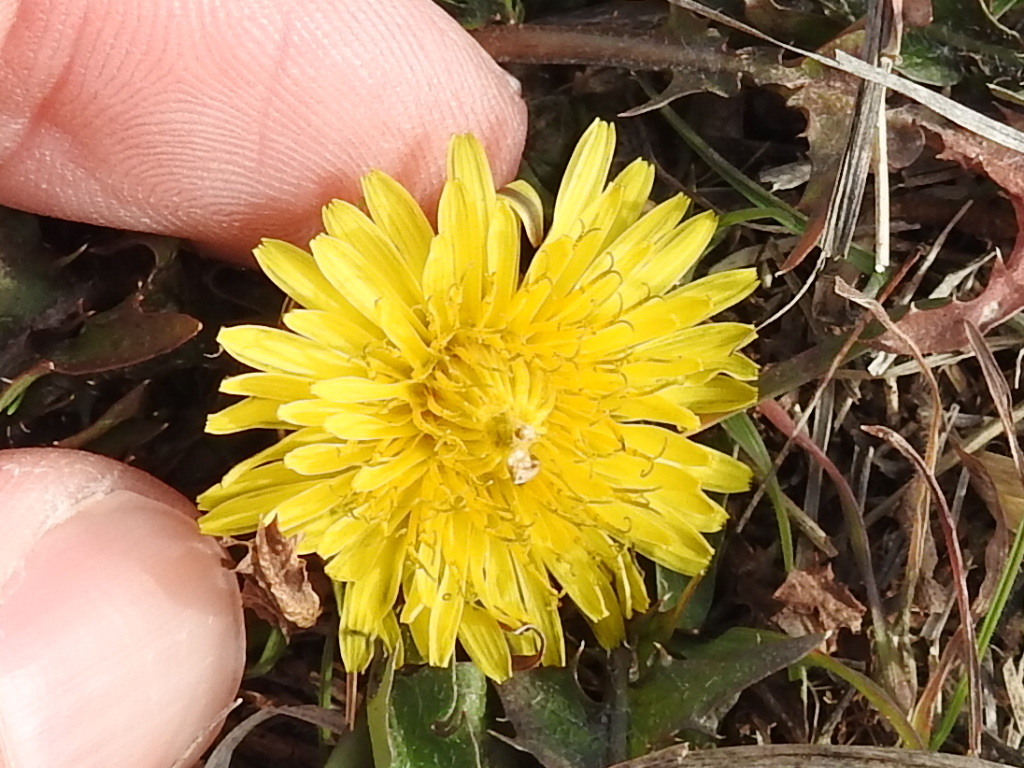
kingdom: Plantae
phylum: Tracheophyta
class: Magnoliopsida
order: Asterales
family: Asteraceae
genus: Taraxacum
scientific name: Taraxacum officinale
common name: Common dandelion
